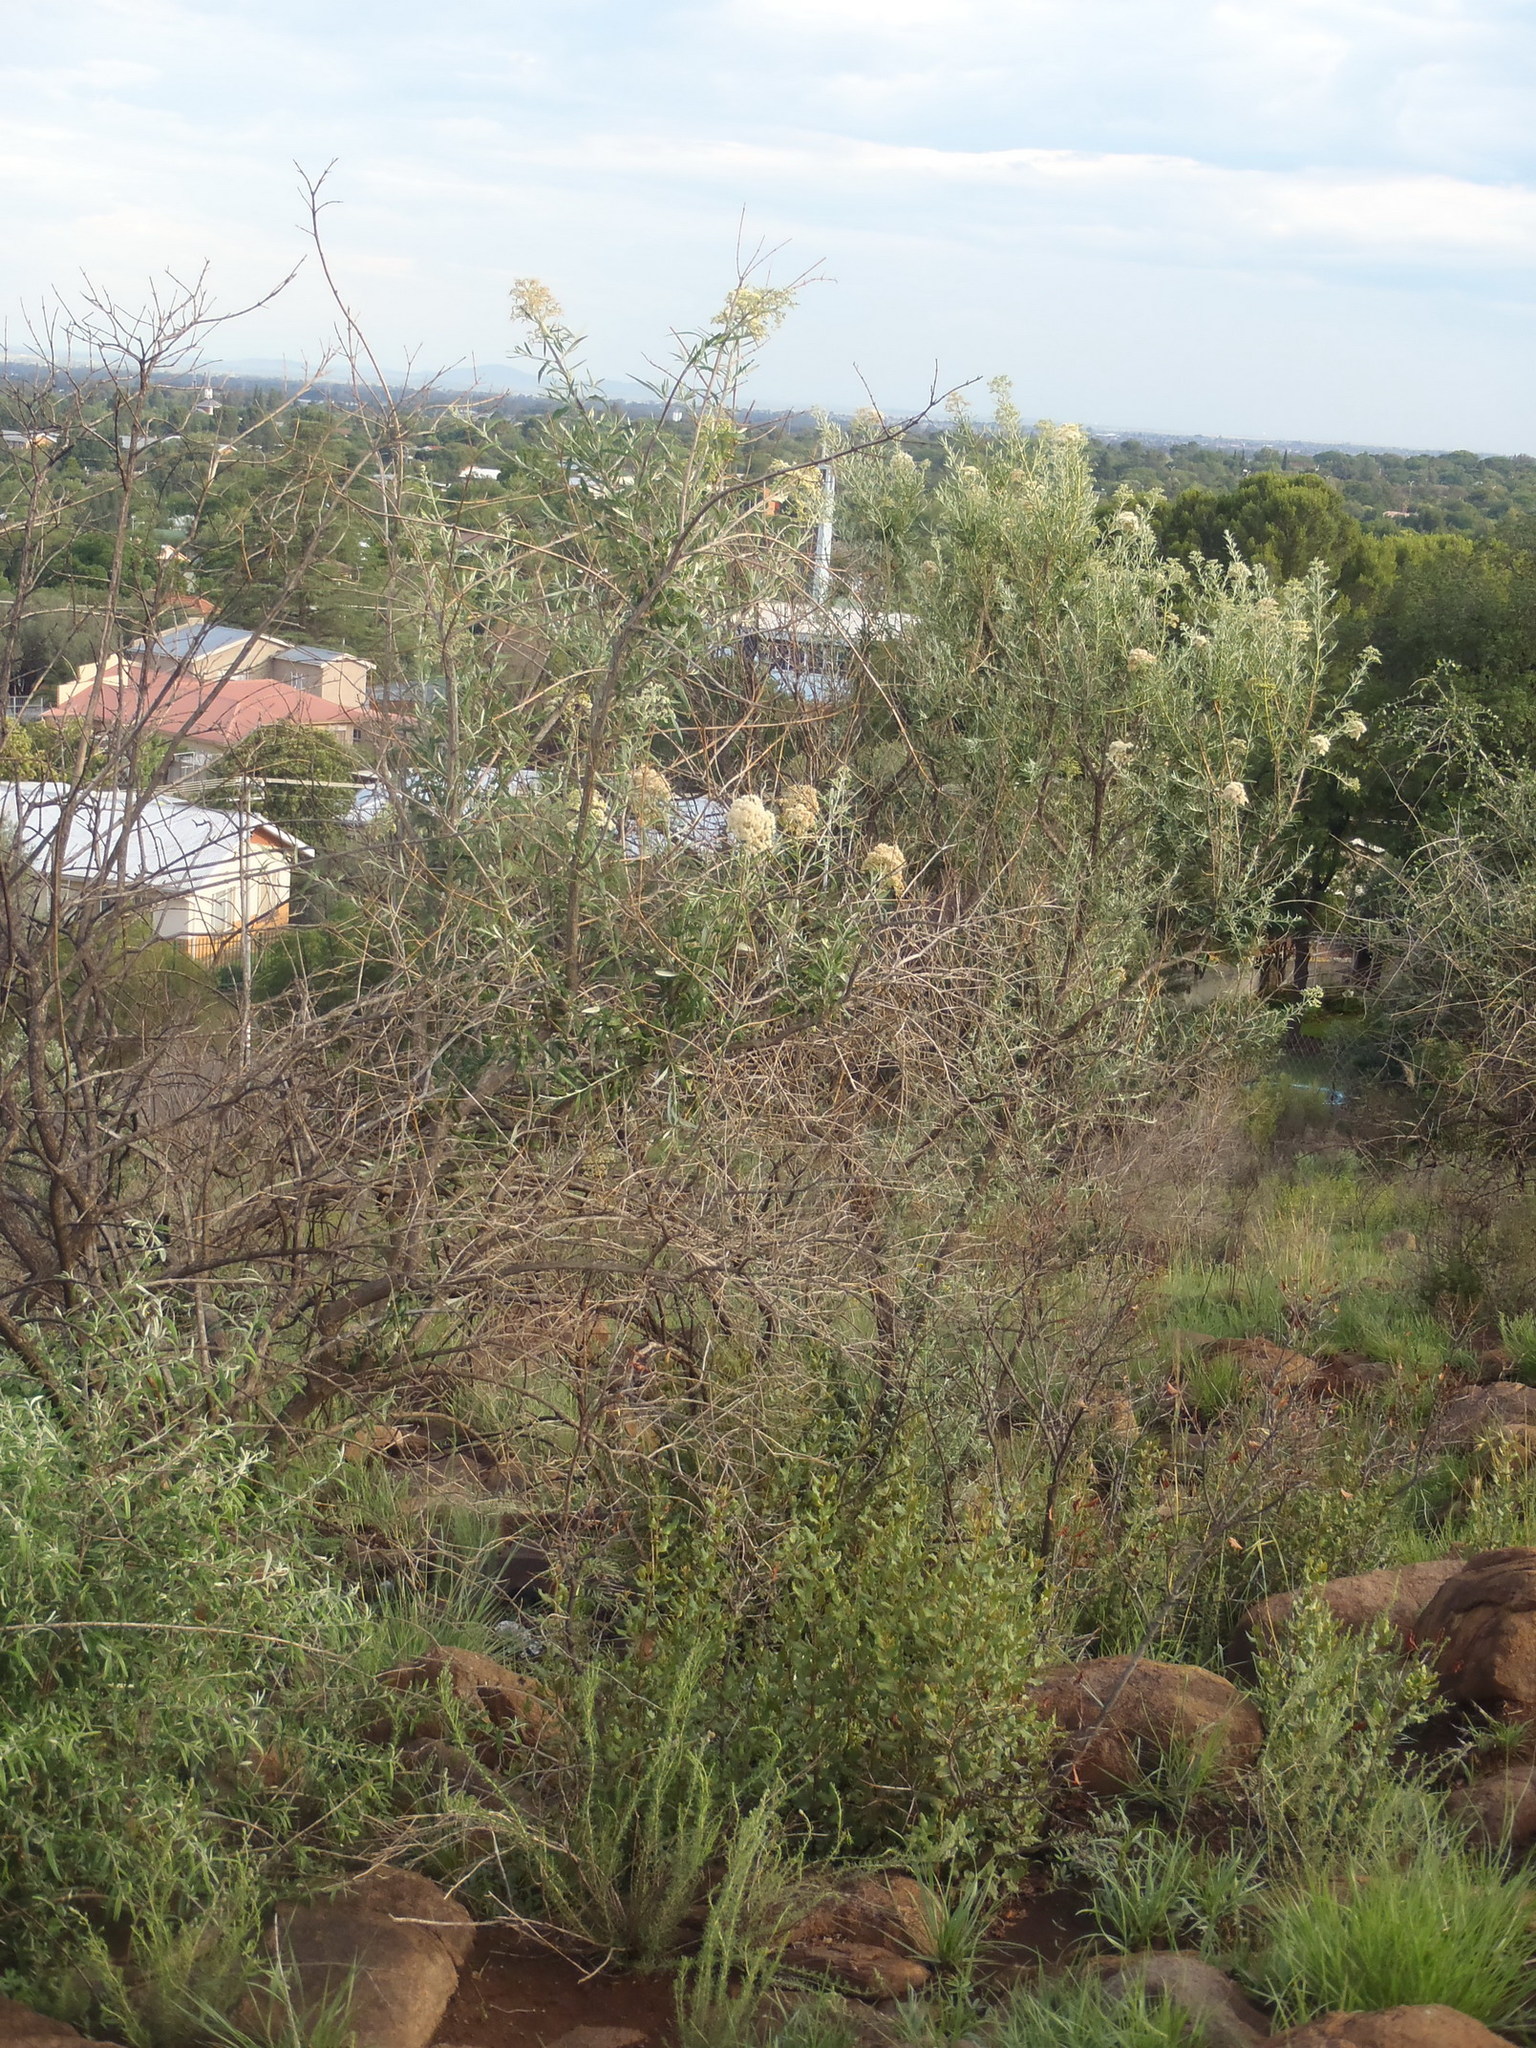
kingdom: Plantae
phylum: Tracheophyta
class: Magnoliopsida
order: Lamiales
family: Scrophulariaceae
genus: Buddleja
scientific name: Buddleja saligna
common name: False olive
